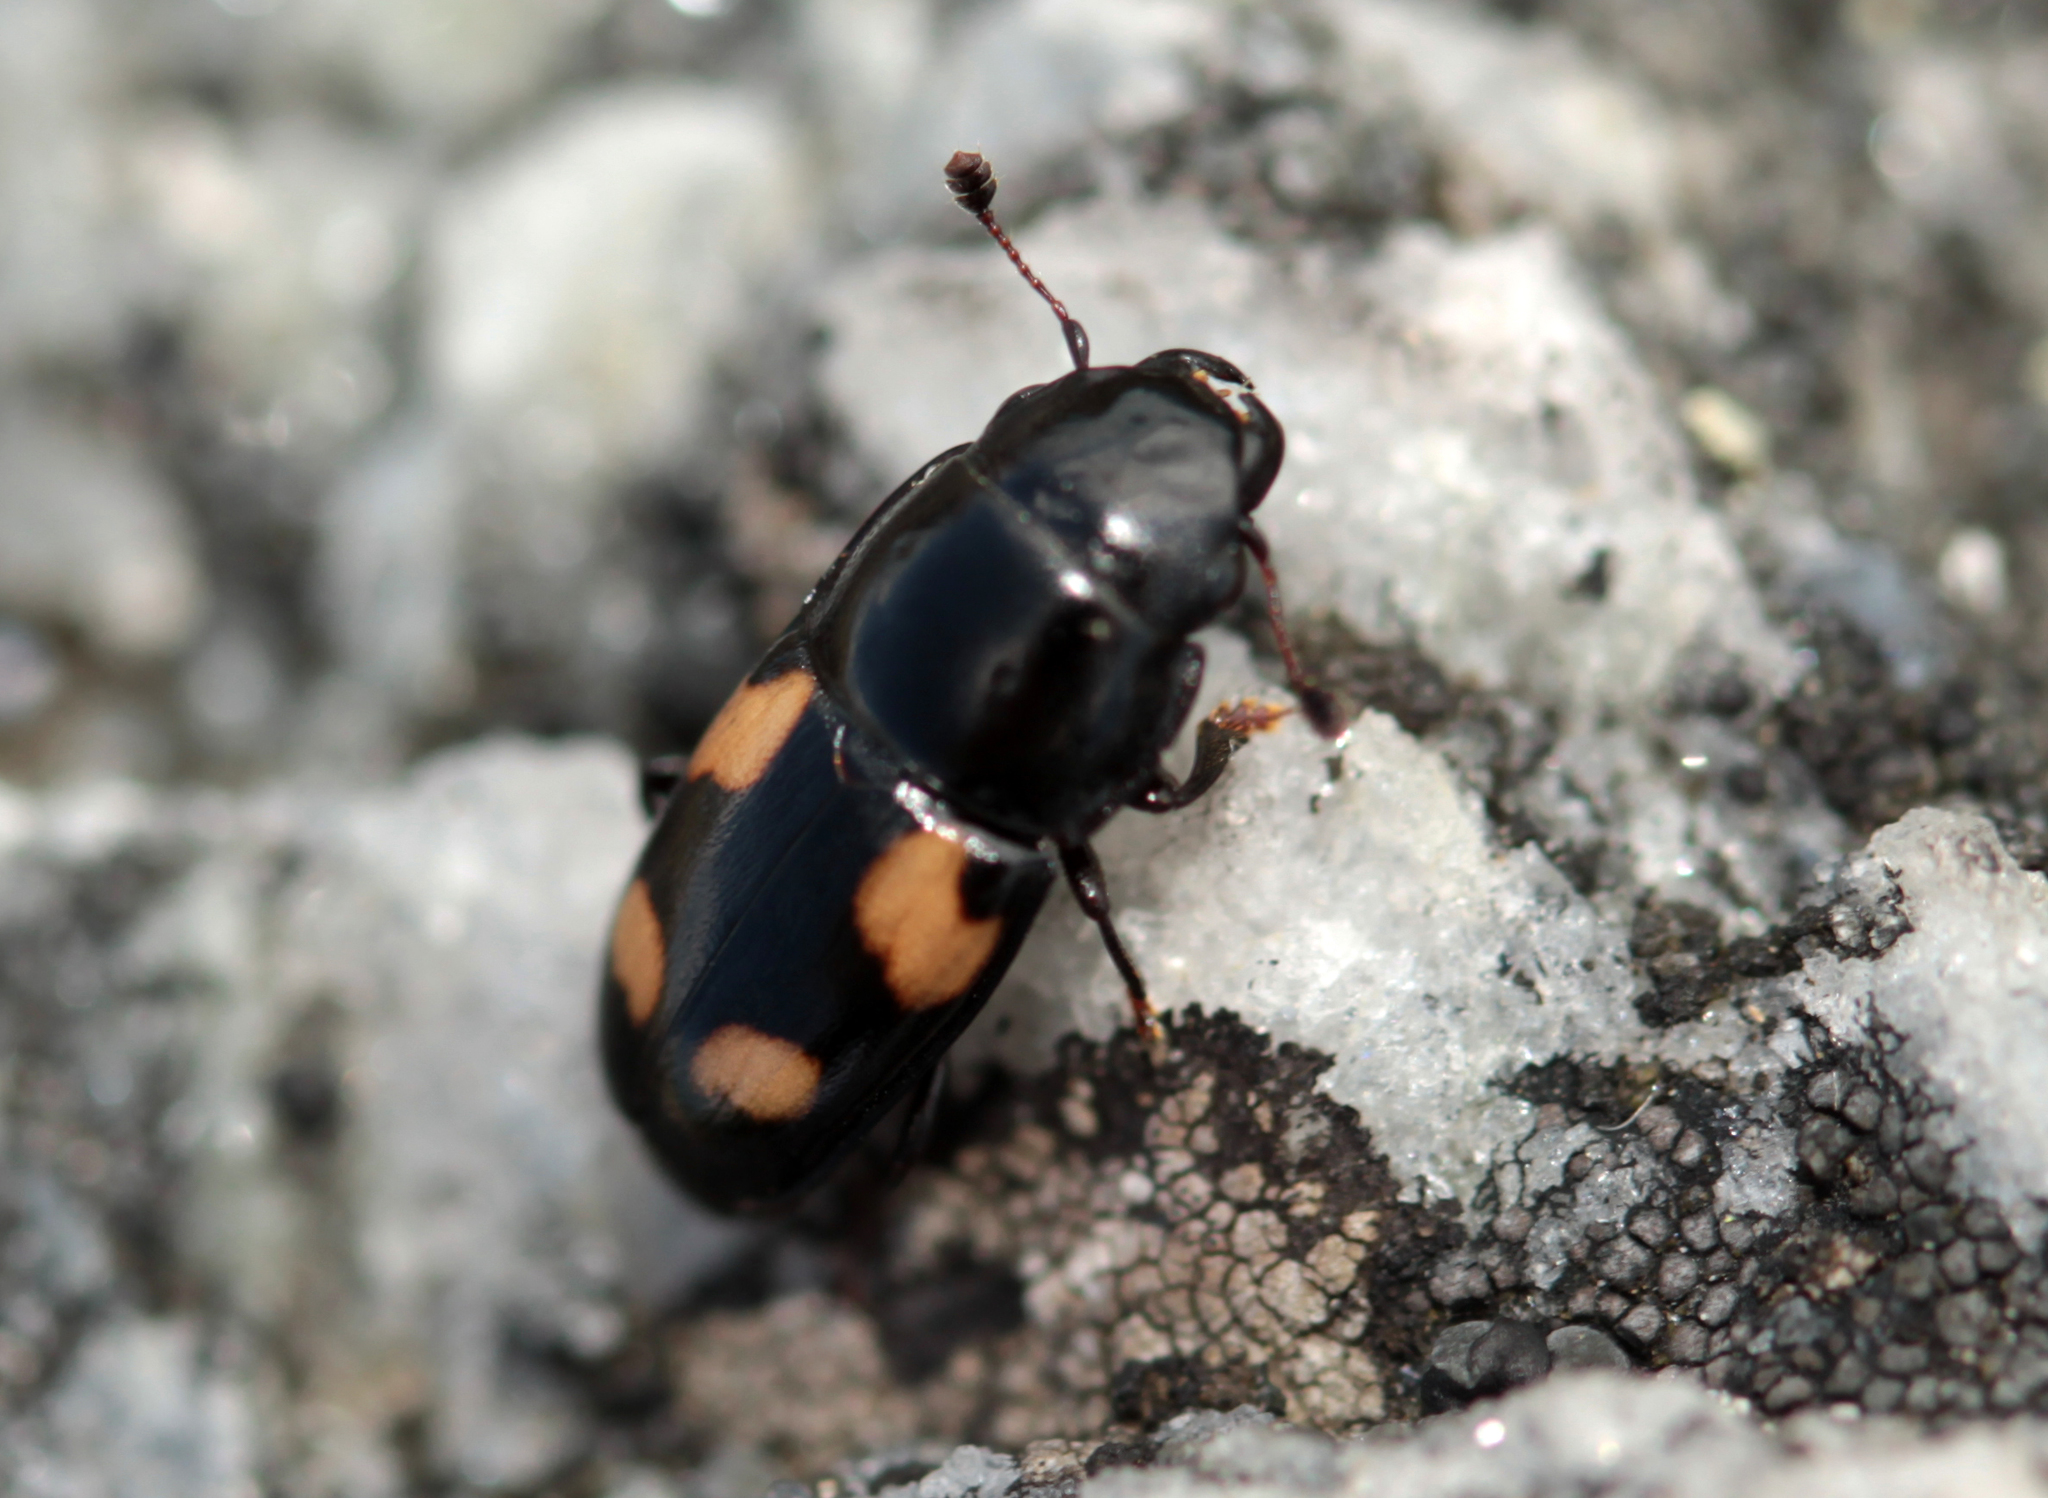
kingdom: Animalia
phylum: Arthropoda
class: Insecta
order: Coleoptera
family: Nitidulidae
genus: Glischrochilus
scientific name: Glischrochilus quadrisignatus
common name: Picnic beetle
